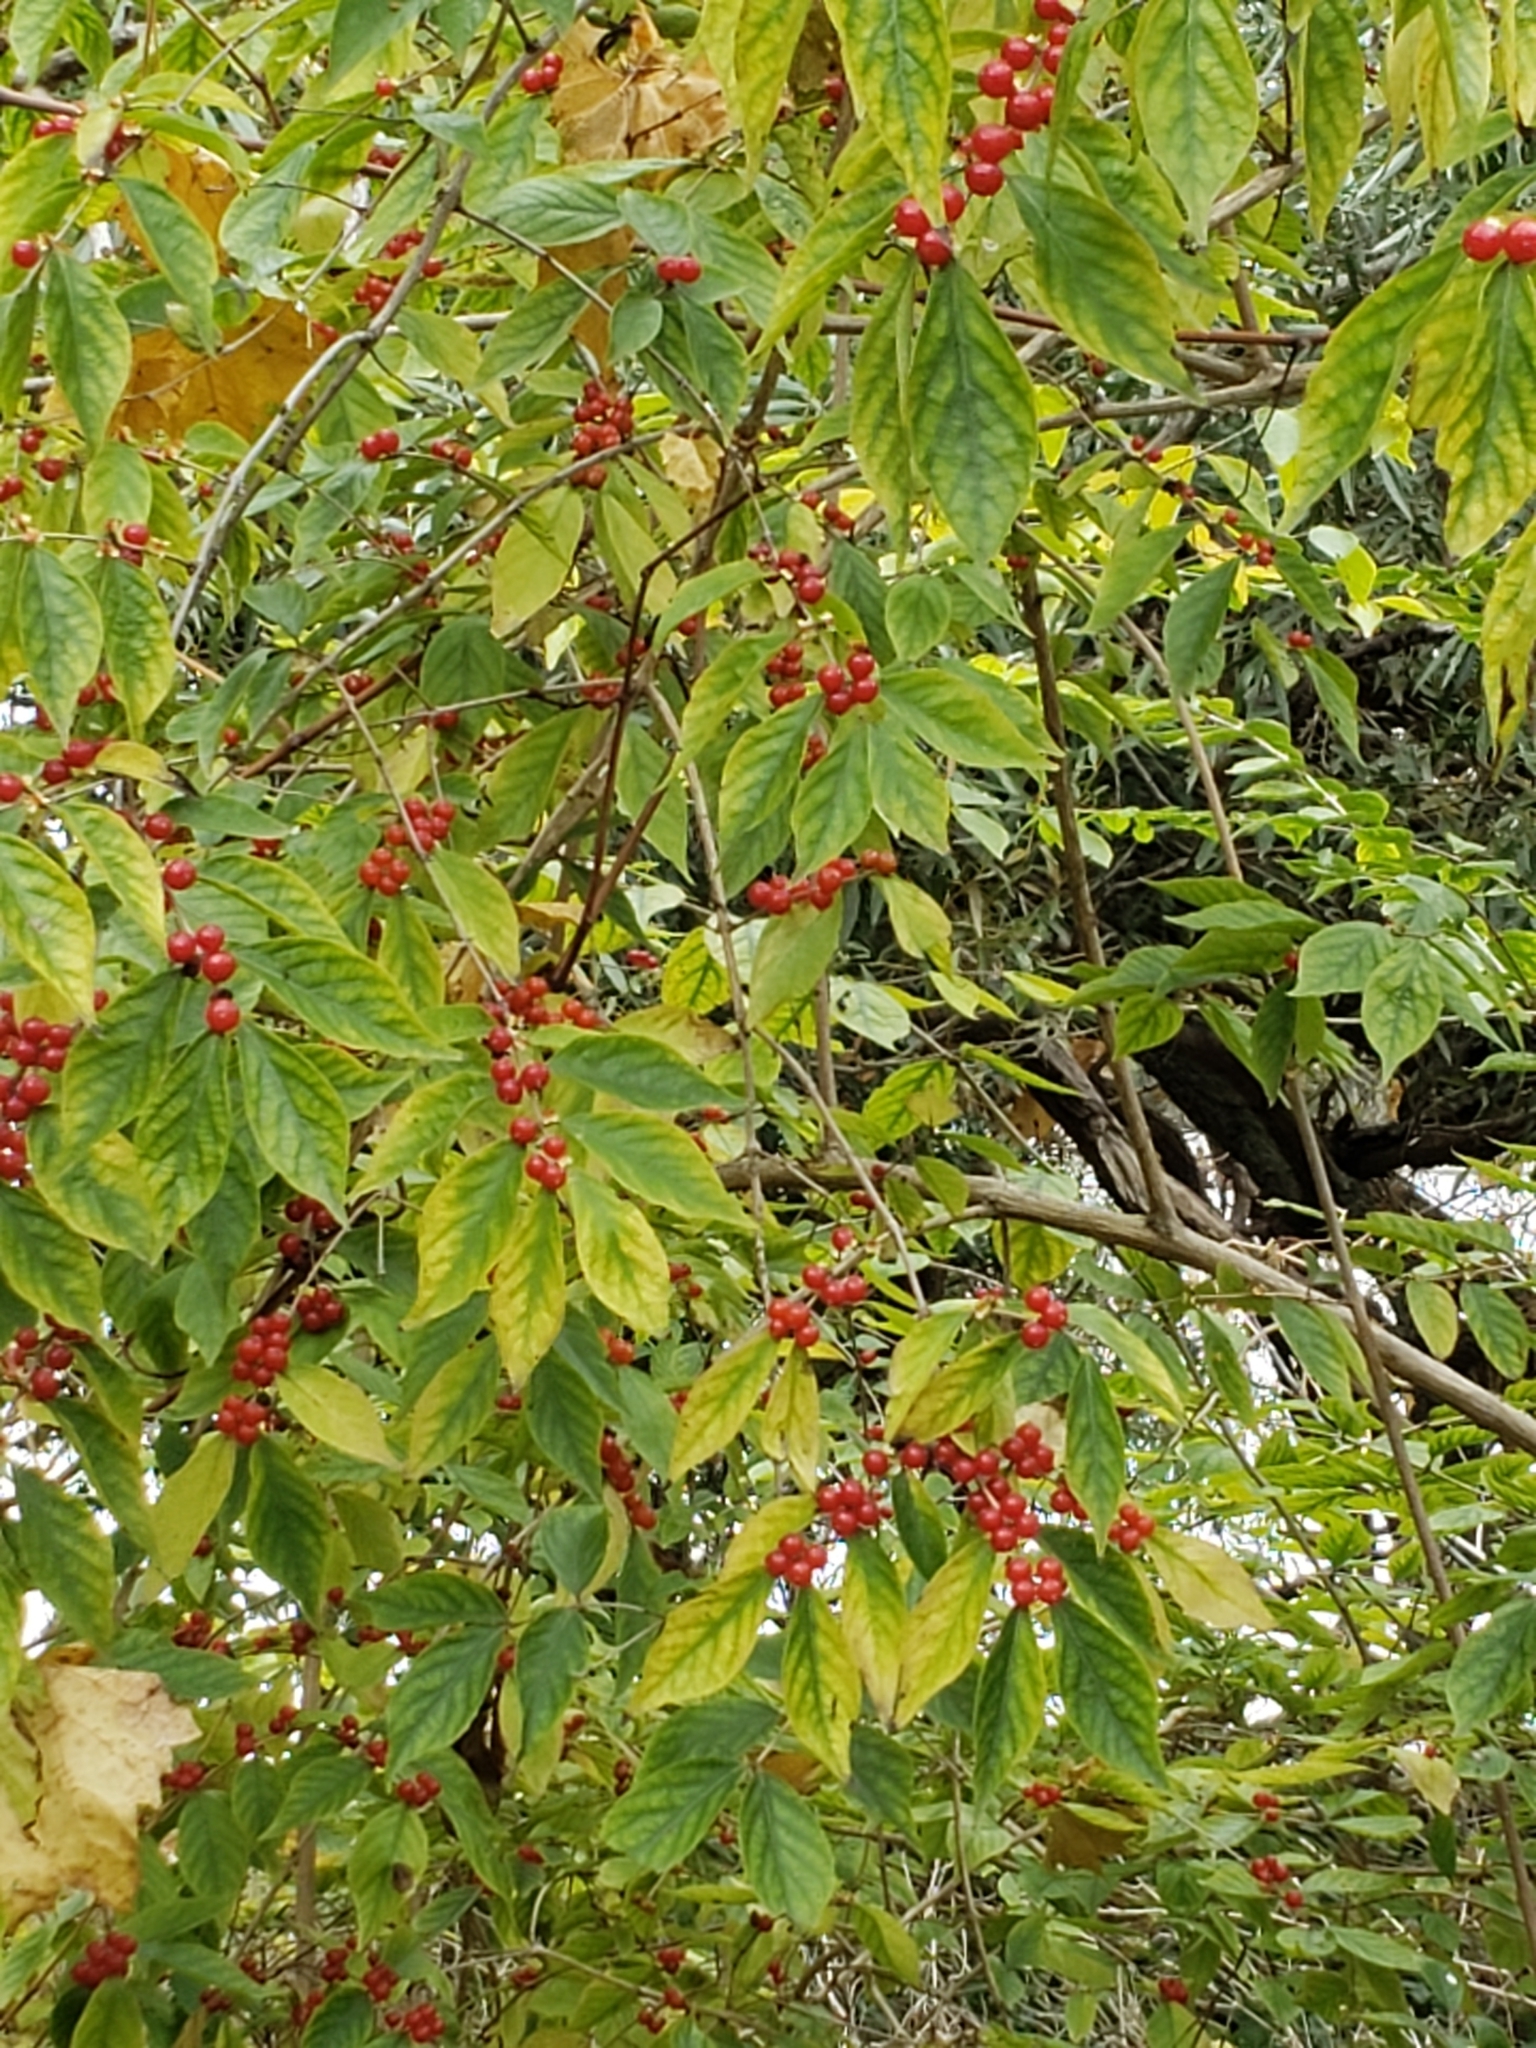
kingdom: Plantae
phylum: Tracheophyta
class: Magnoliopsida
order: Dipsacales
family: Caprifoliaceae
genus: Lonicera
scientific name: Lonicera maackii
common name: Amur honeysuckle
